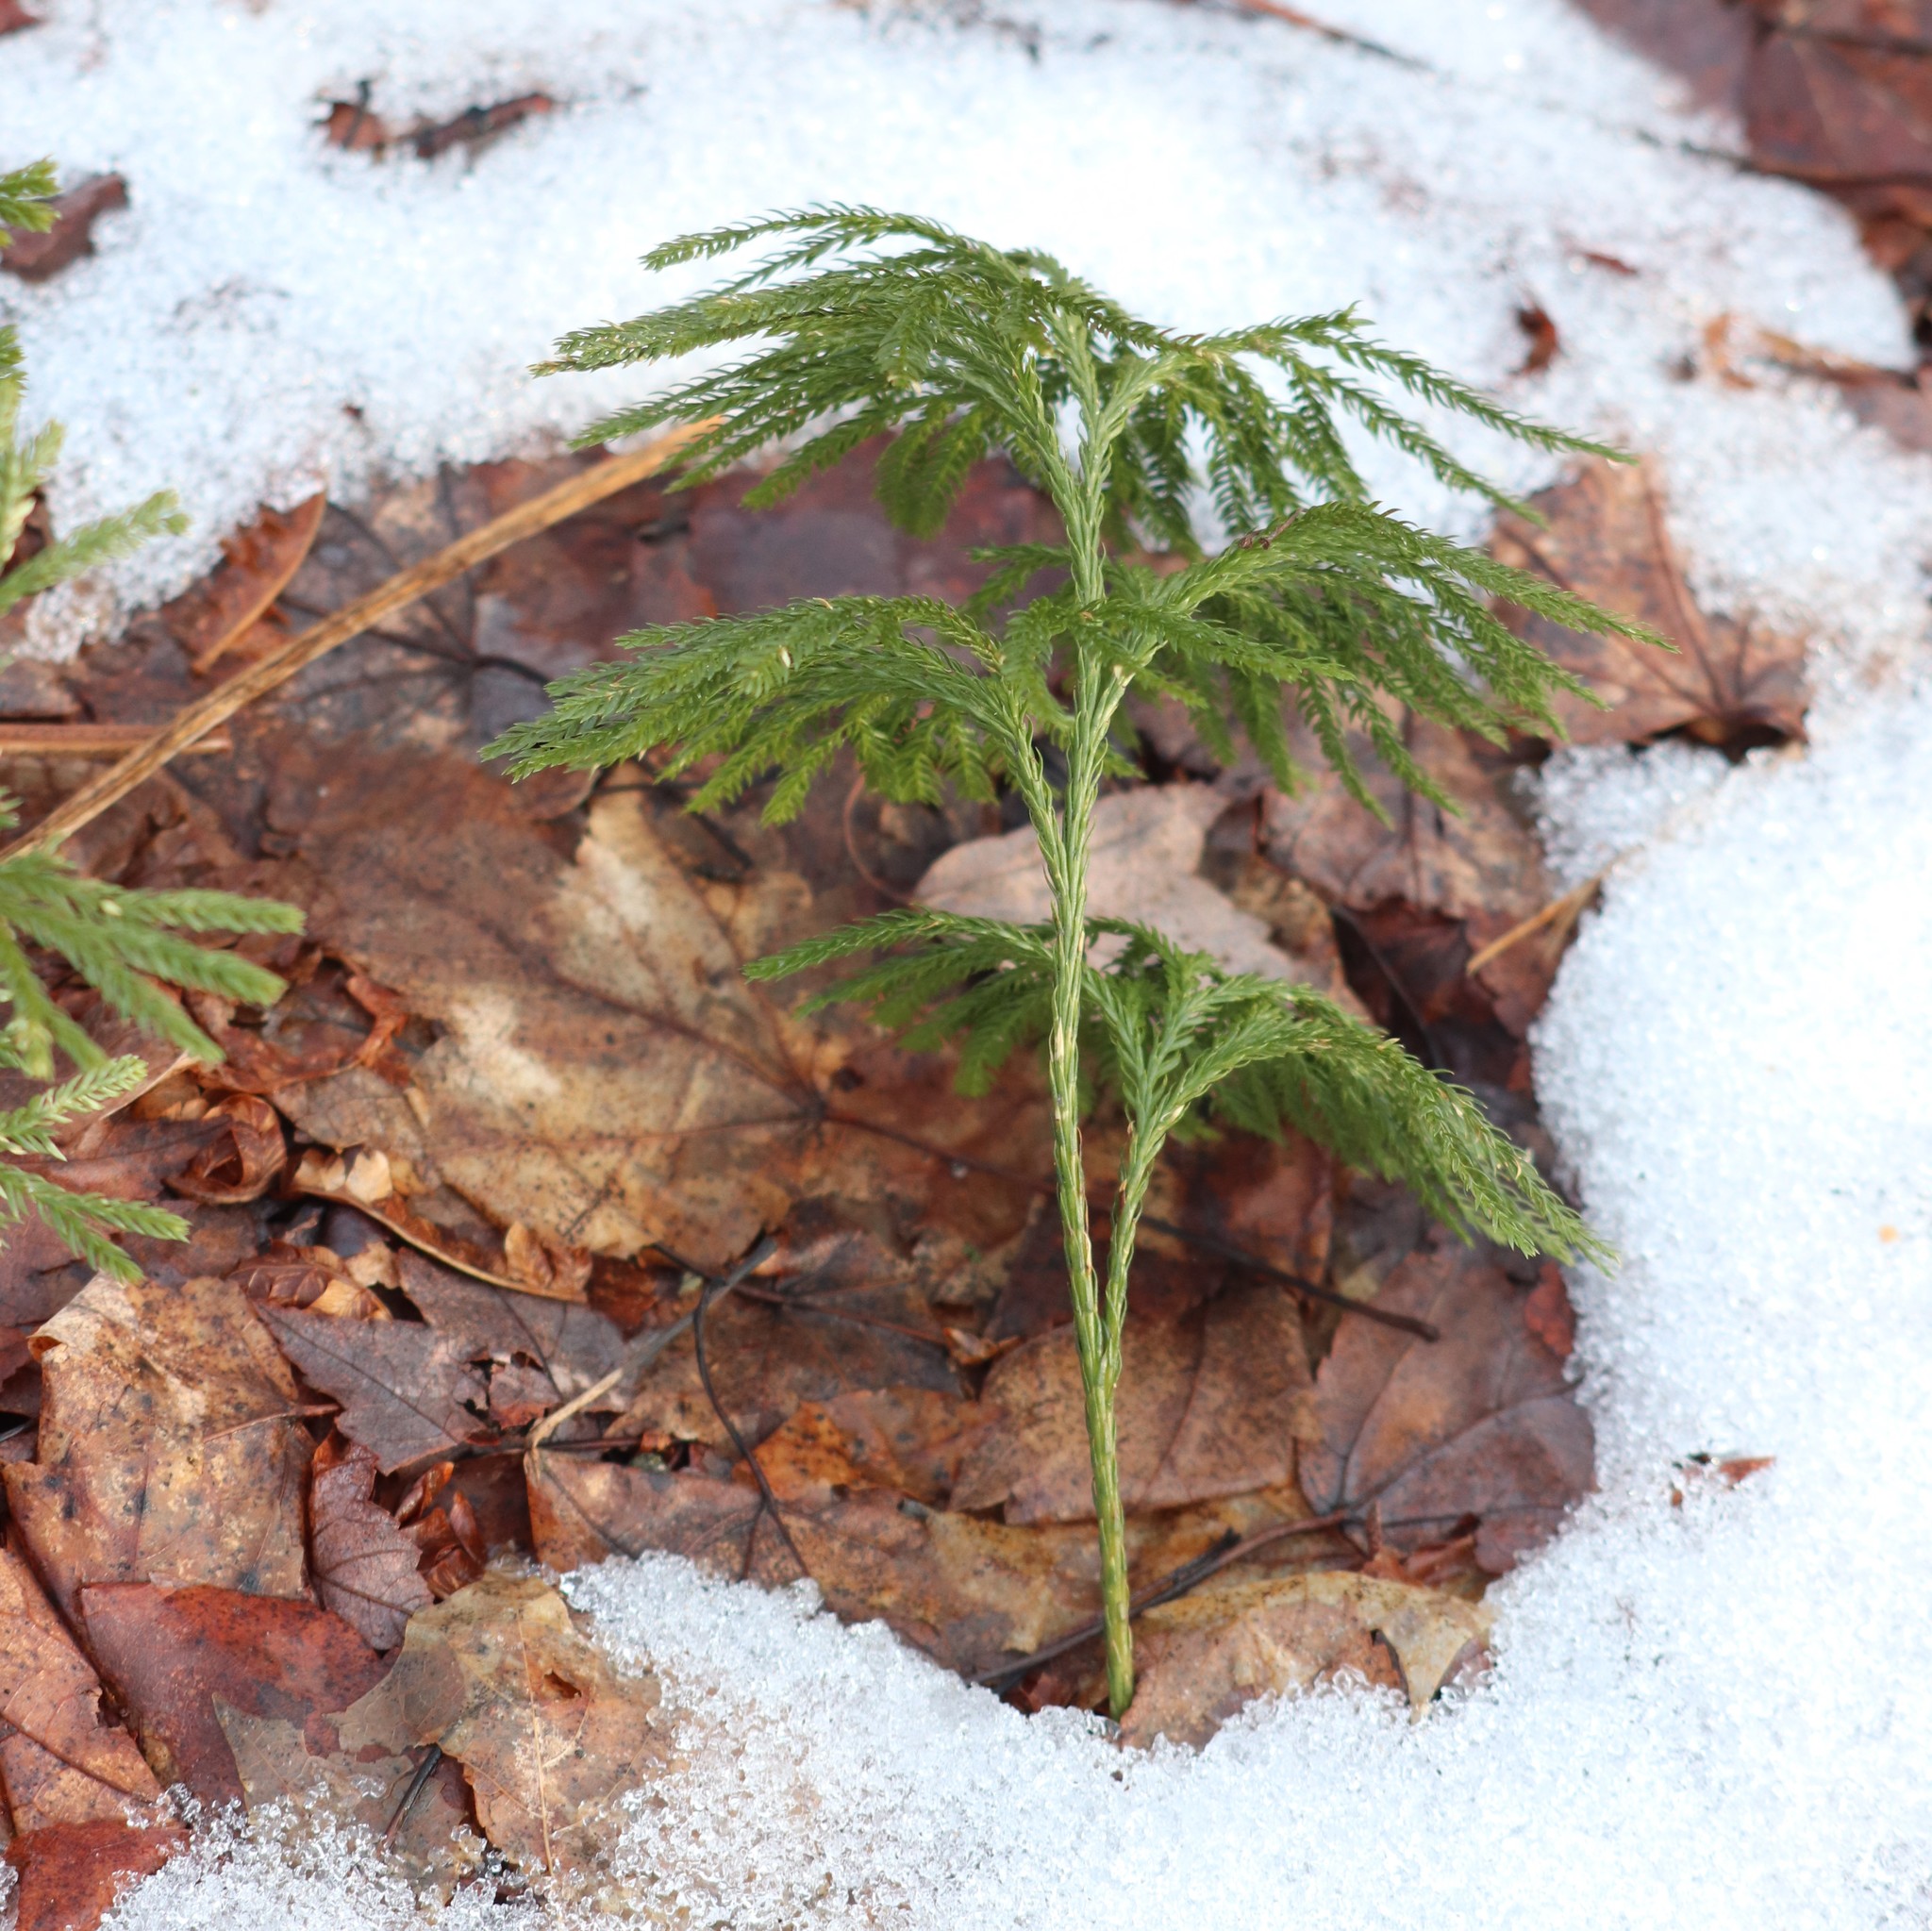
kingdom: Plantae
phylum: Tracheophyta
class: Lycopodiopsida
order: Lycopodiales
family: Lycopodiaceae
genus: Dendrolycopodium
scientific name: Dendrolycopodium obscurum
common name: Common ground-pine
